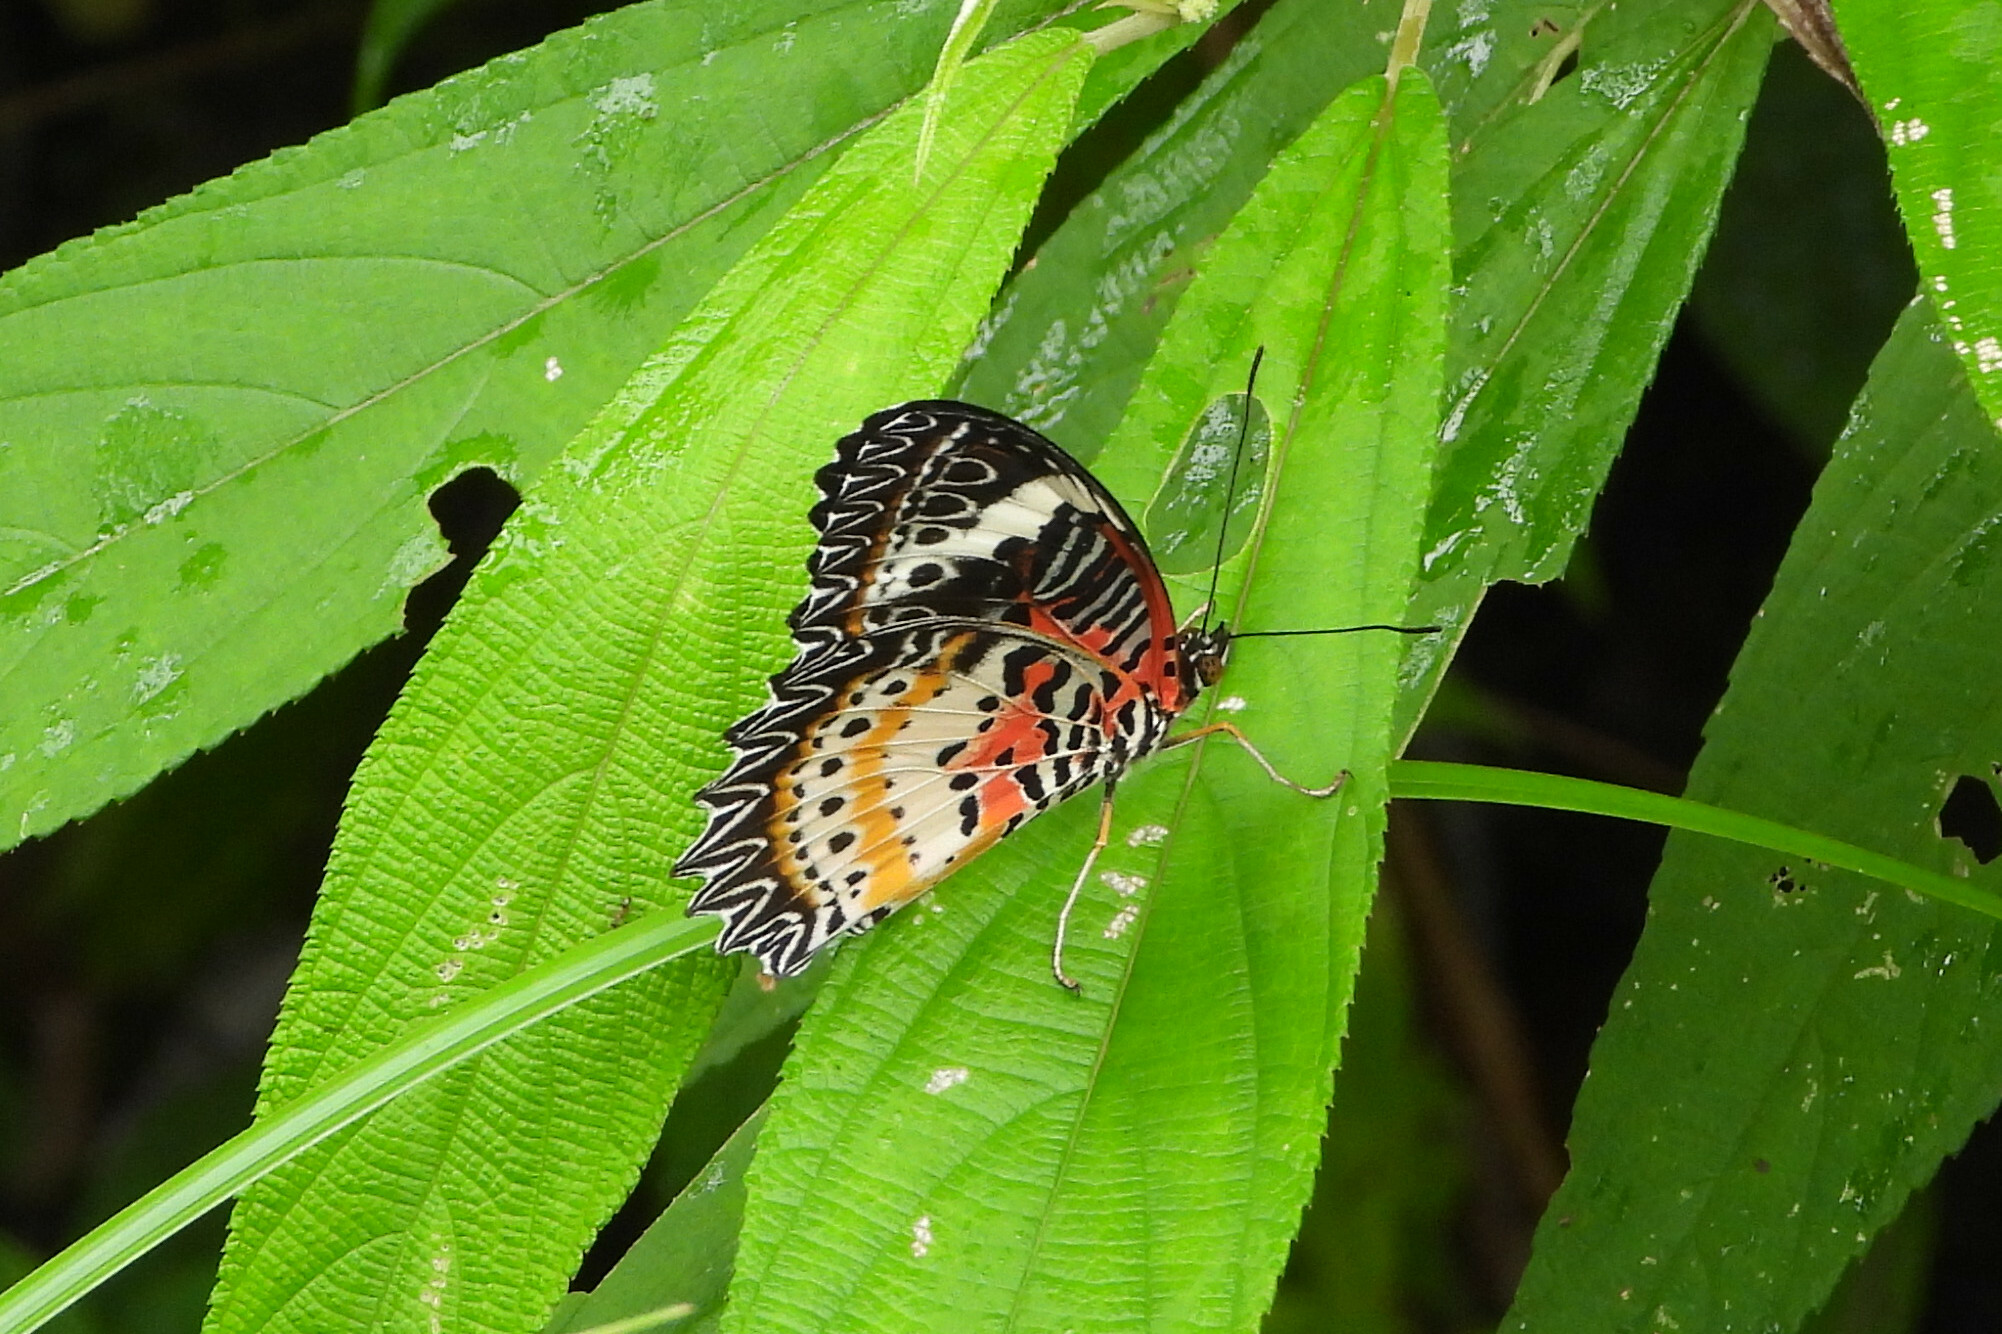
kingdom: Animalia
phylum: Arthropoda
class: Insecta
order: Lepidoptera
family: Nymphalidae
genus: Cethosia
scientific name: Cethosia cyane
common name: Leopard lacewing butterfly
